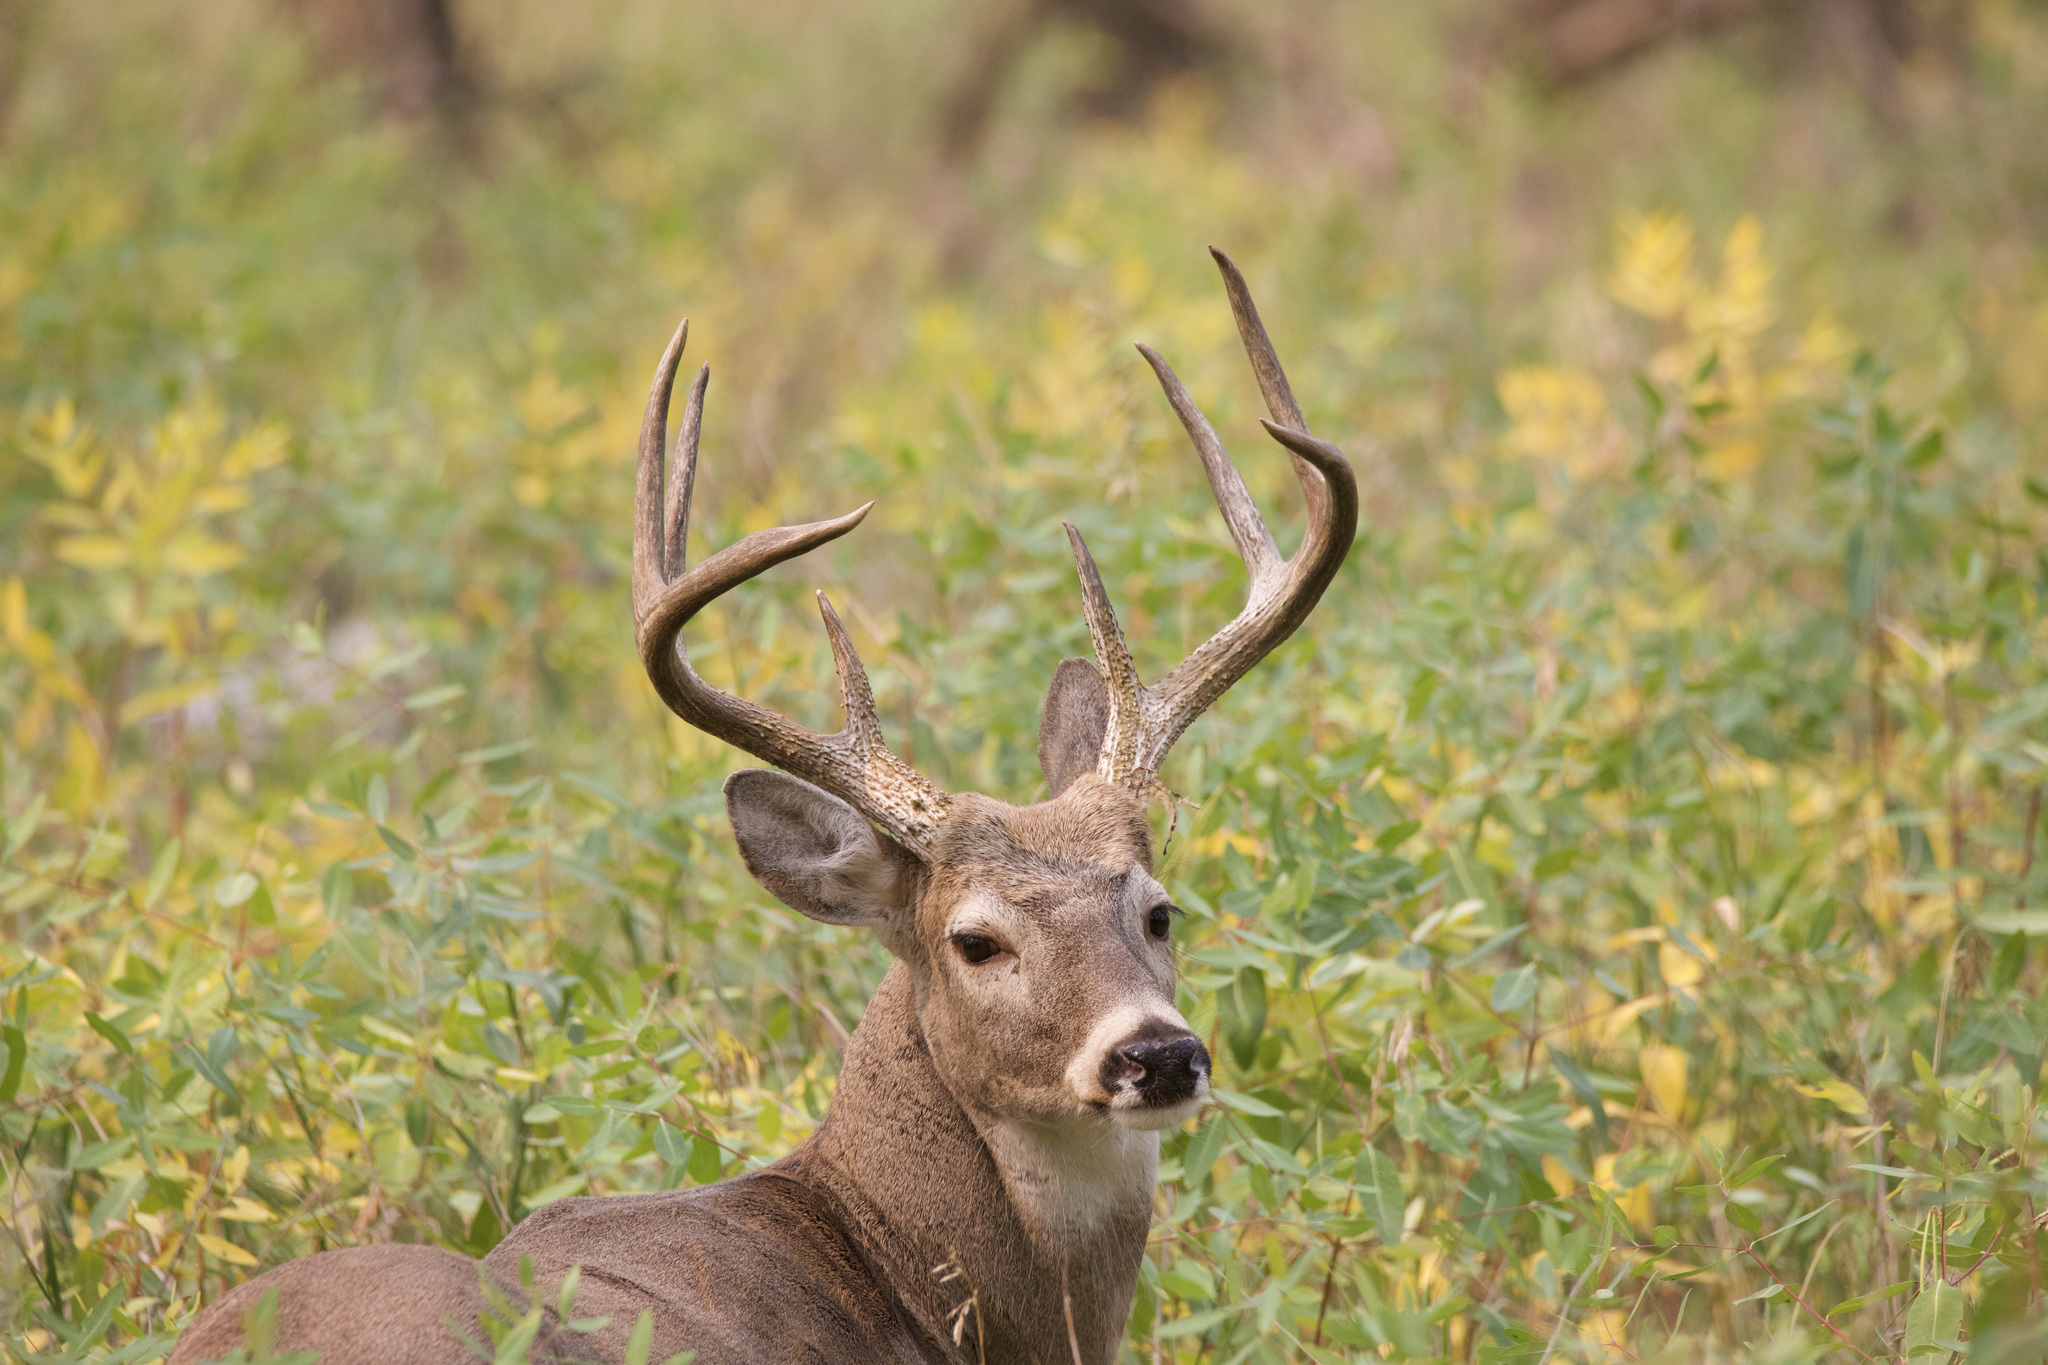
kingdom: Animalia
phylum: Chordata
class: Mammalia
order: Artiodactyla
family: Cervidae
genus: Odocoileus
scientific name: Odocoileus virginianus
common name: White-tailed deer
